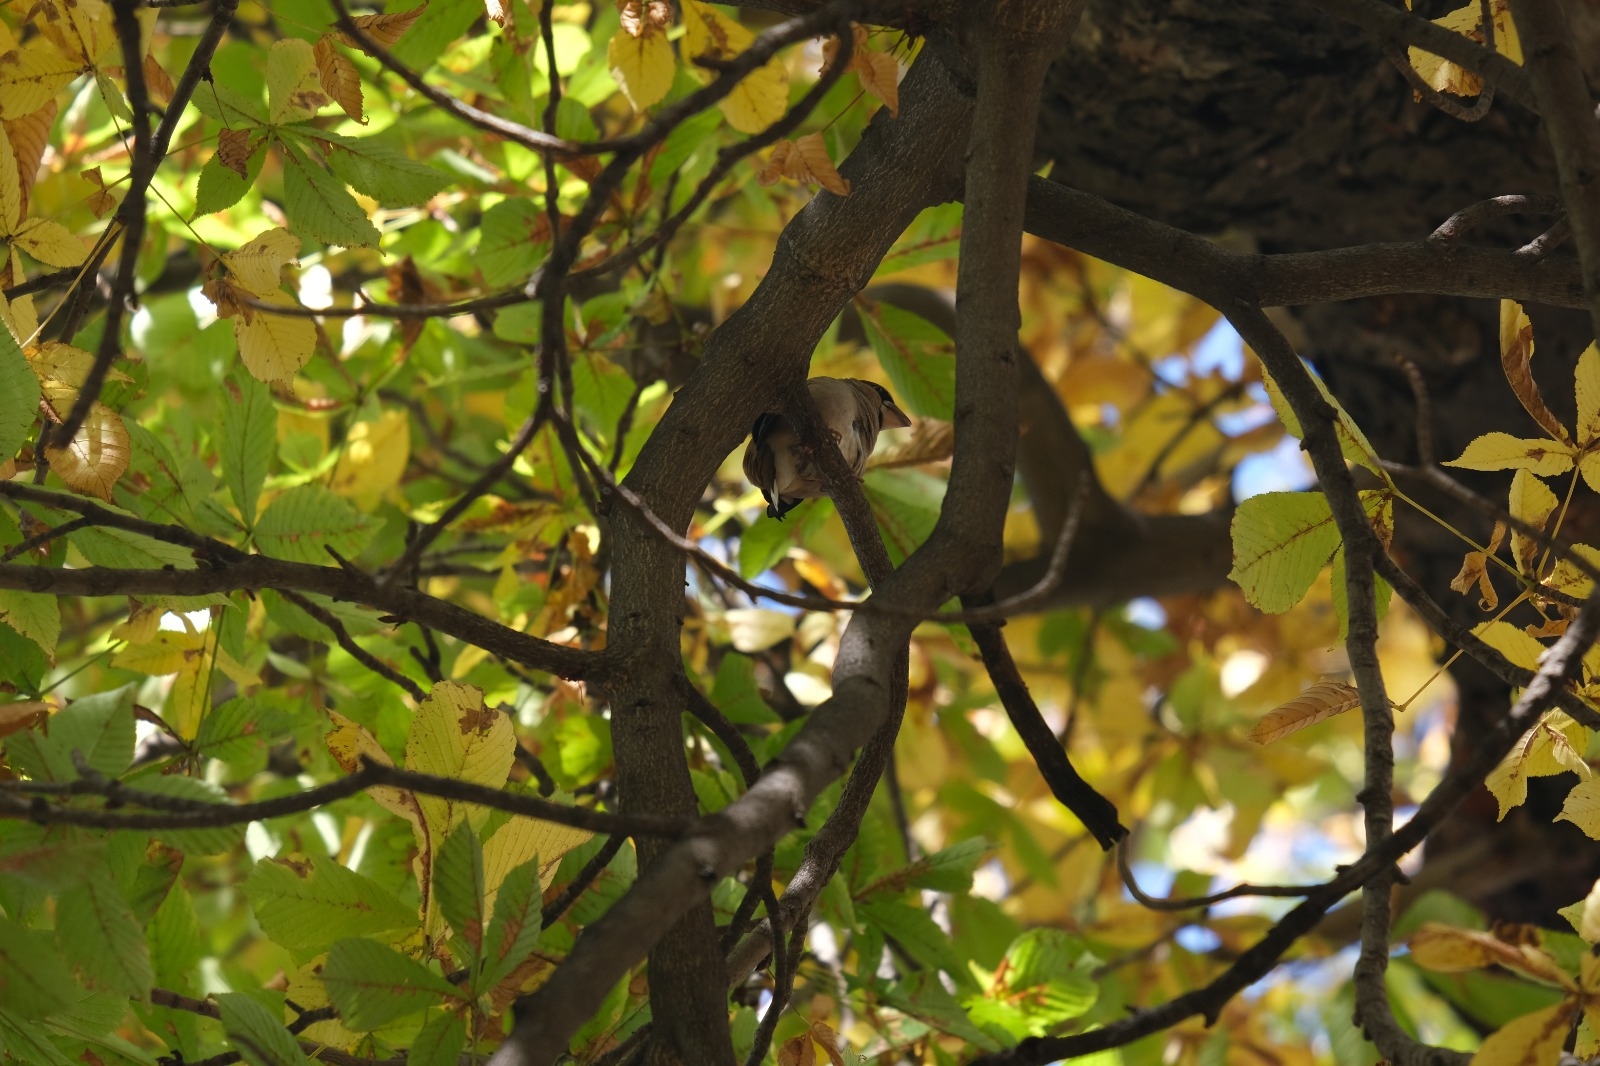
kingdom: Animalia
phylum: Chordata
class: Aves
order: Passeriformes
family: Fringillidae
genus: Coccothraustes
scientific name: Coccothraustes coccothraustes
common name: Hawfinch
